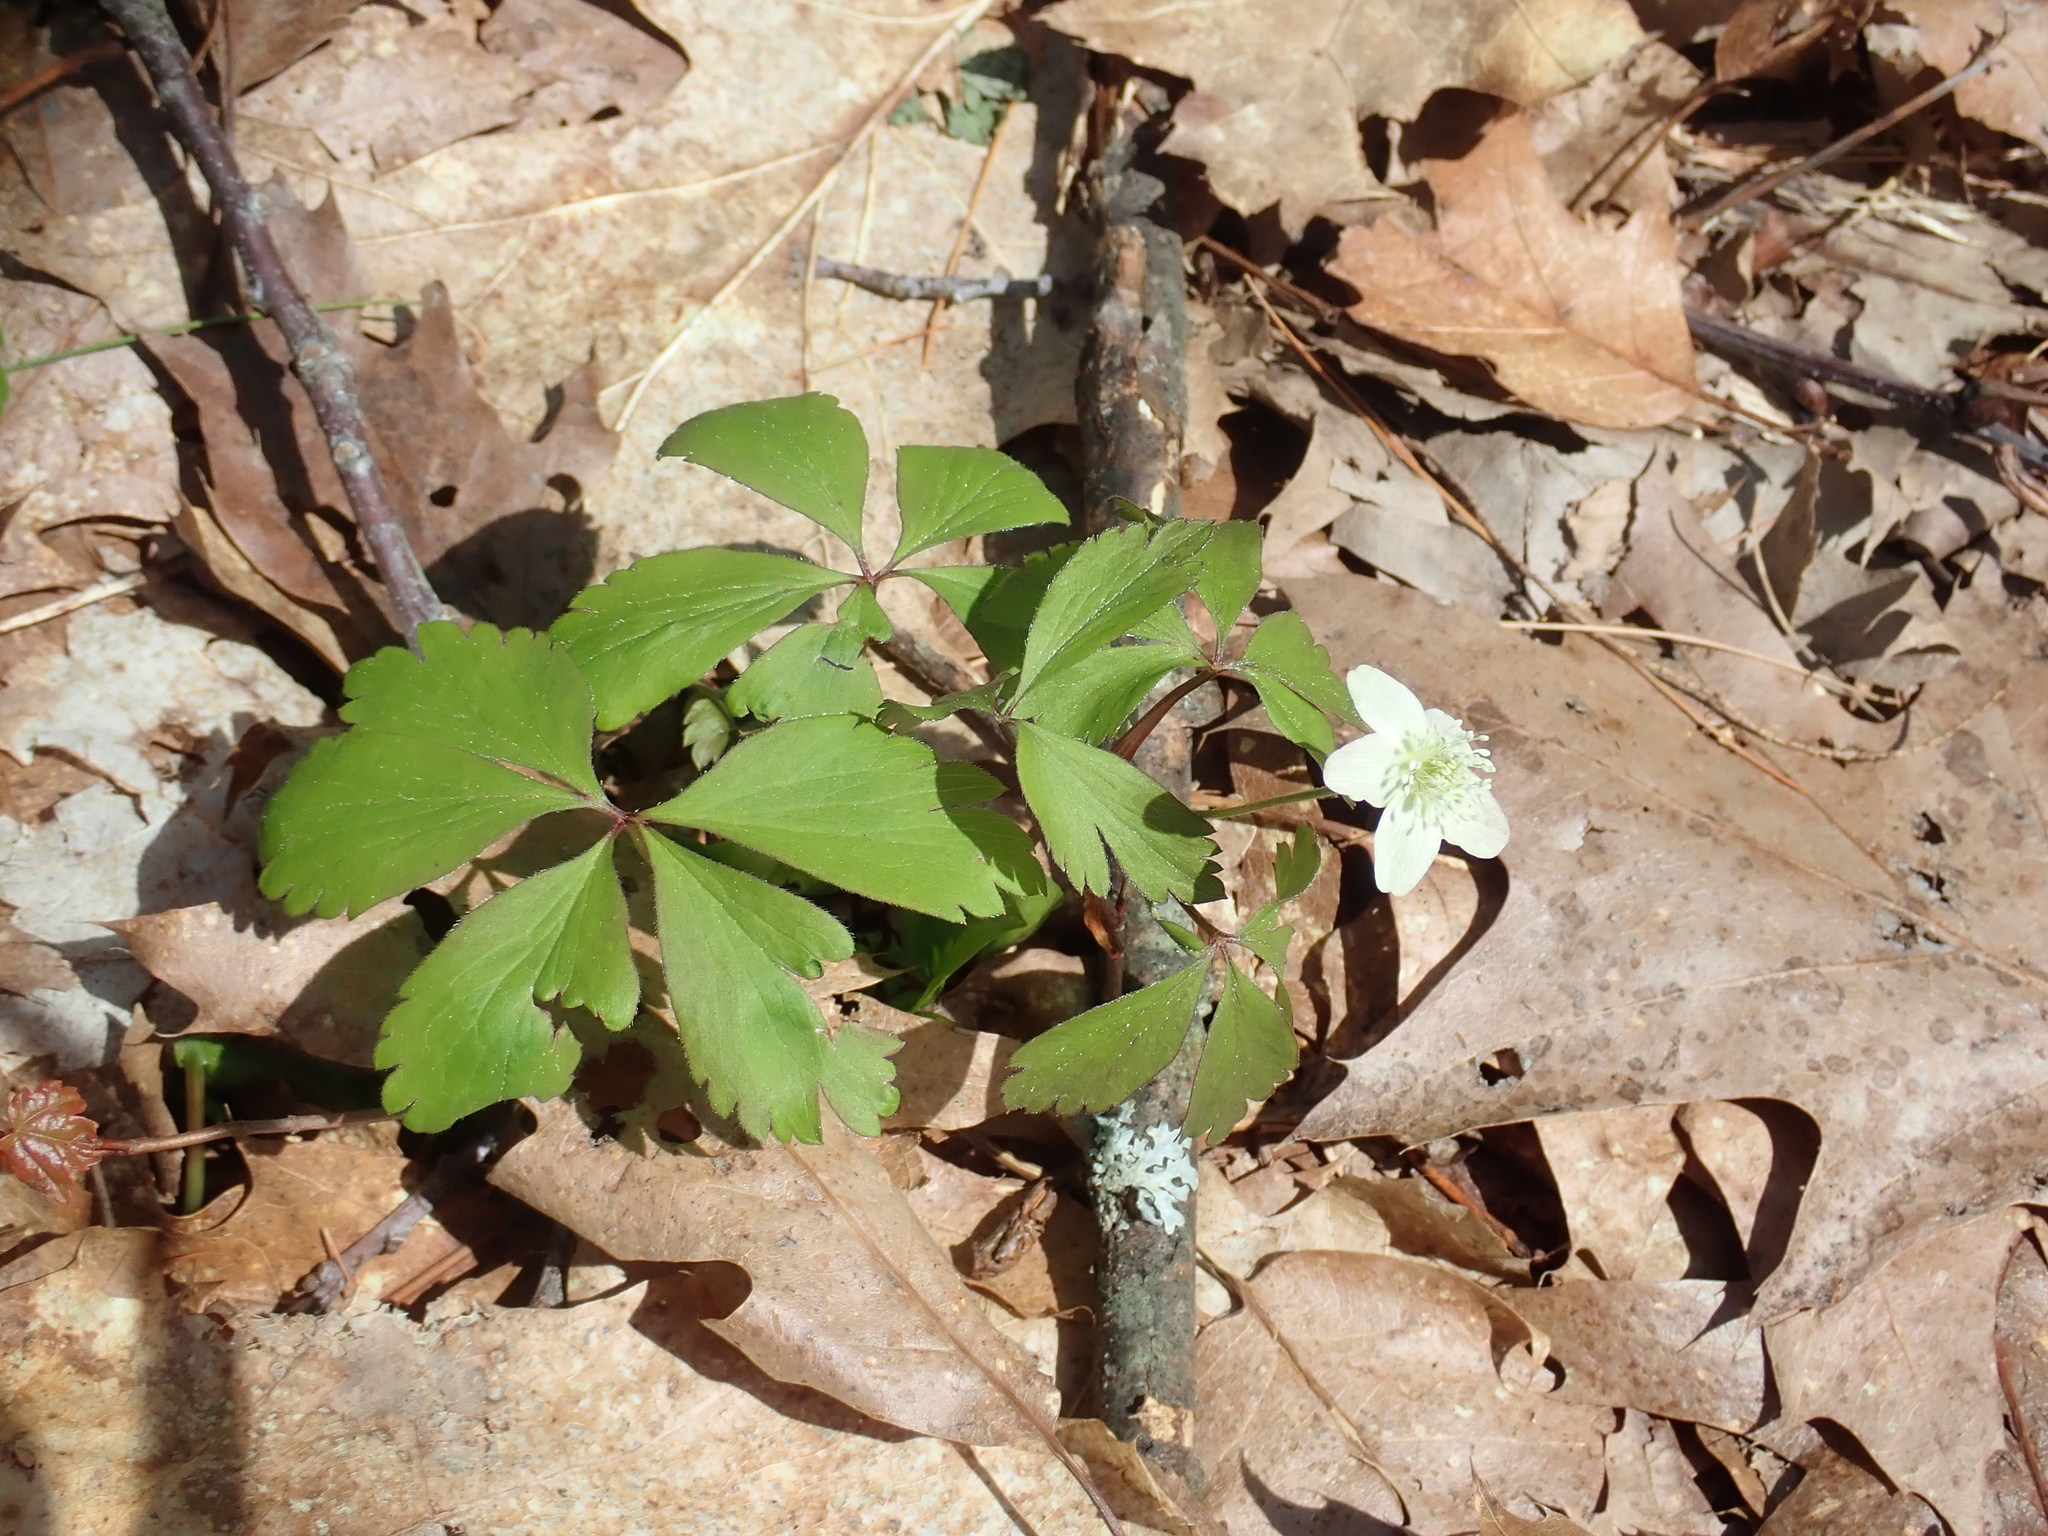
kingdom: Plantae
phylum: Tracheophyta
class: Magnoliopsida
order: Ranunculales
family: Ranunculaceae
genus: Anemone
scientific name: Anemone quinquefolia
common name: Wood anemone
